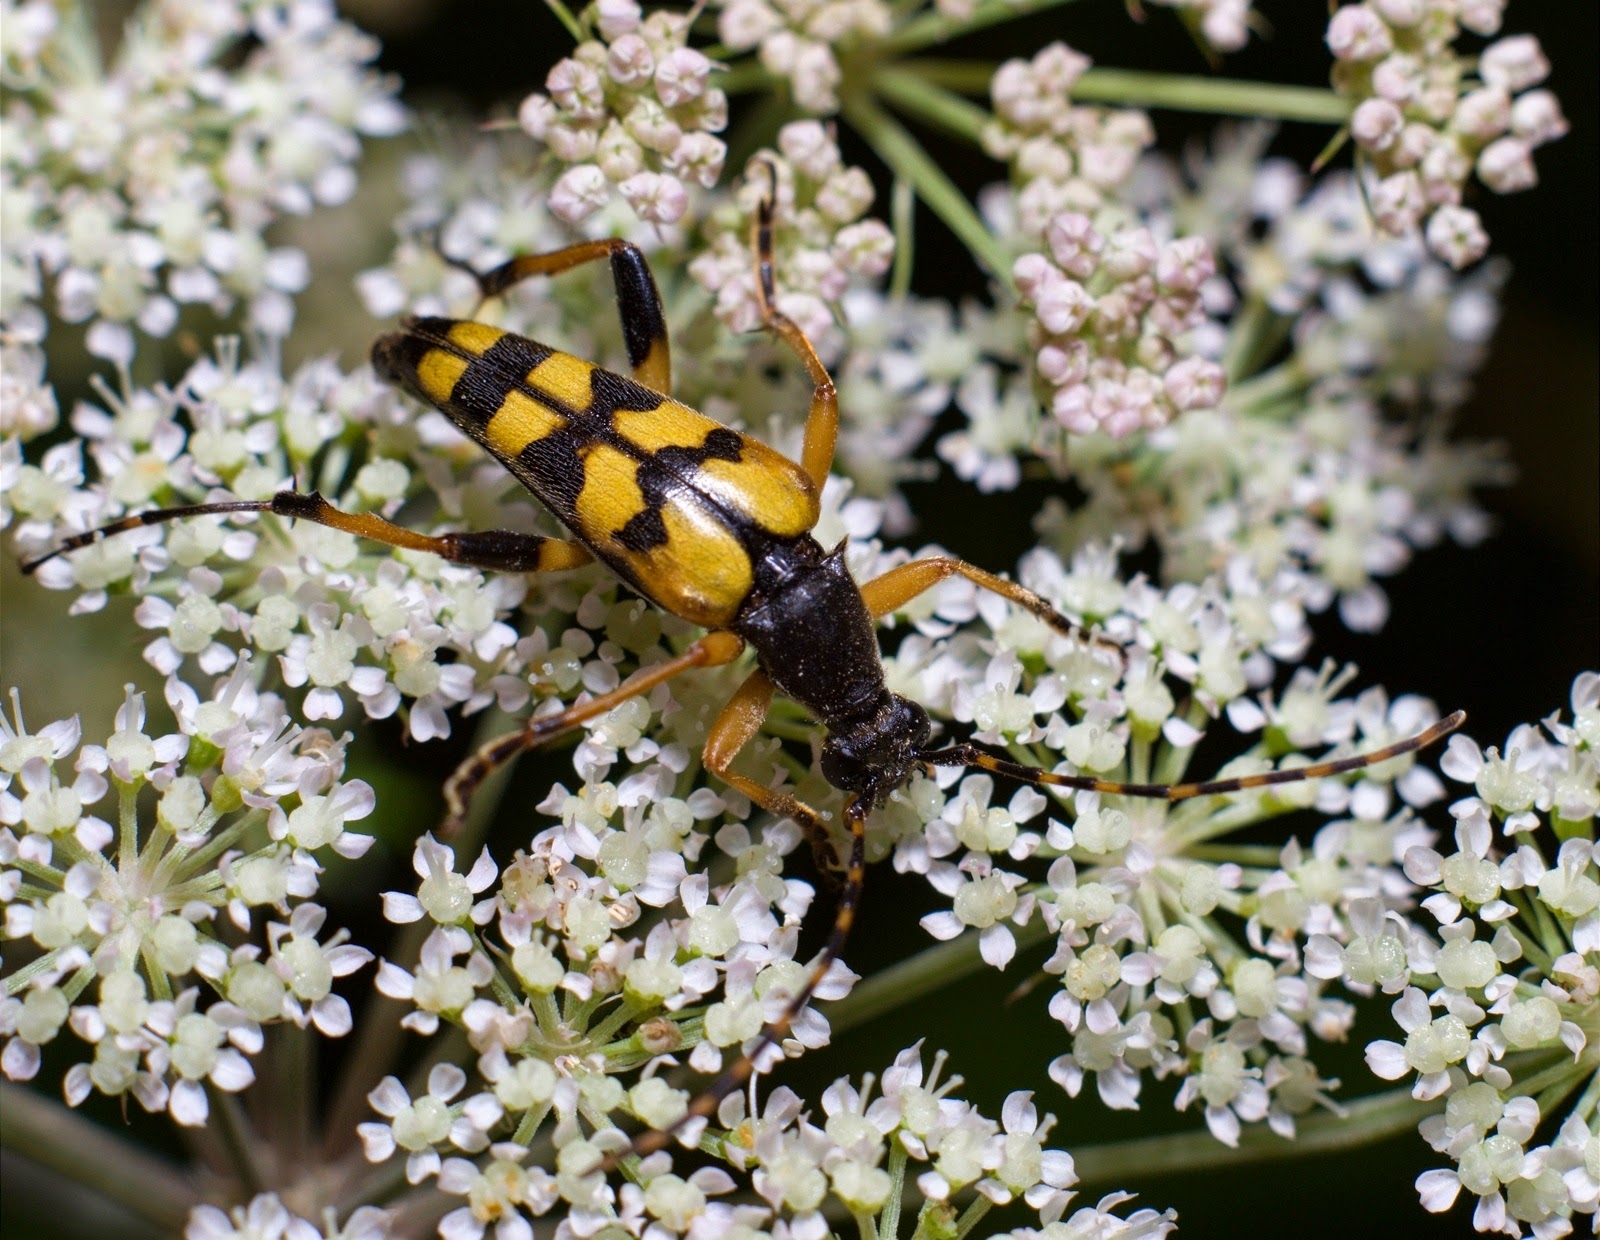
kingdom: Animalia
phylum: Arthropoda
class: Insecta
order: Coleoptera
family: Cerambycidae
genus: Rutpela
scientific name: Rutpela maculata
